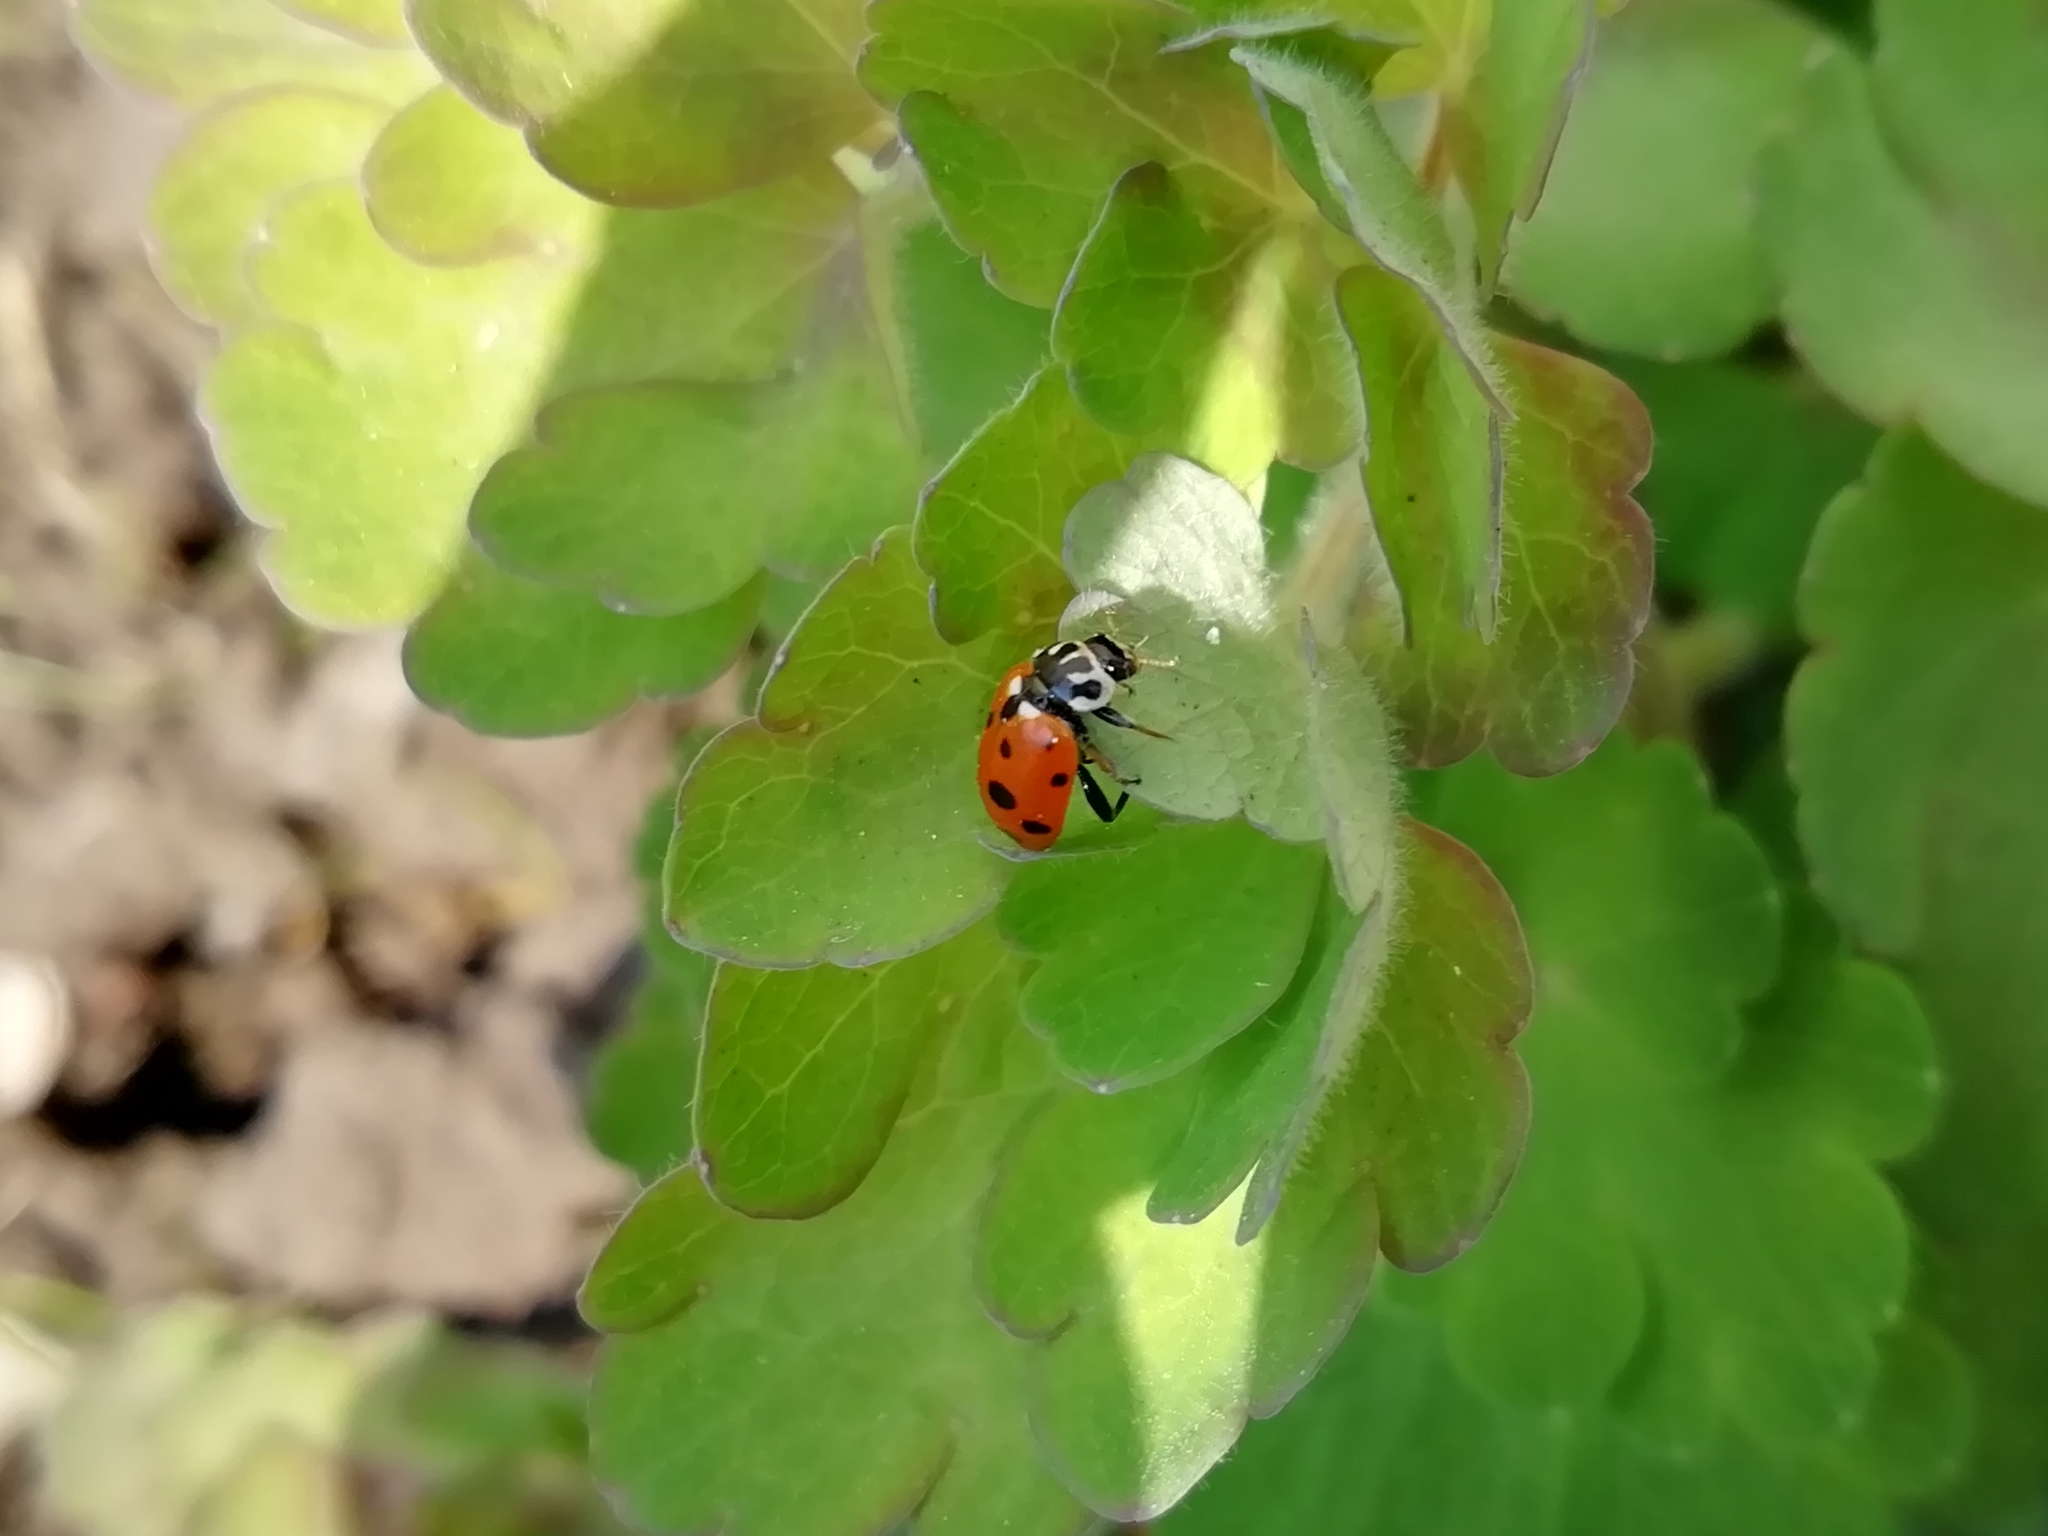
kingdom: Animalia
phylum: Arthropoda
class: Insecta
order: Coleoptera
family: Coccinellidae
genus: Hippodamia
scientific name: Hippodamia variegata
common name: Ladybird beetle
